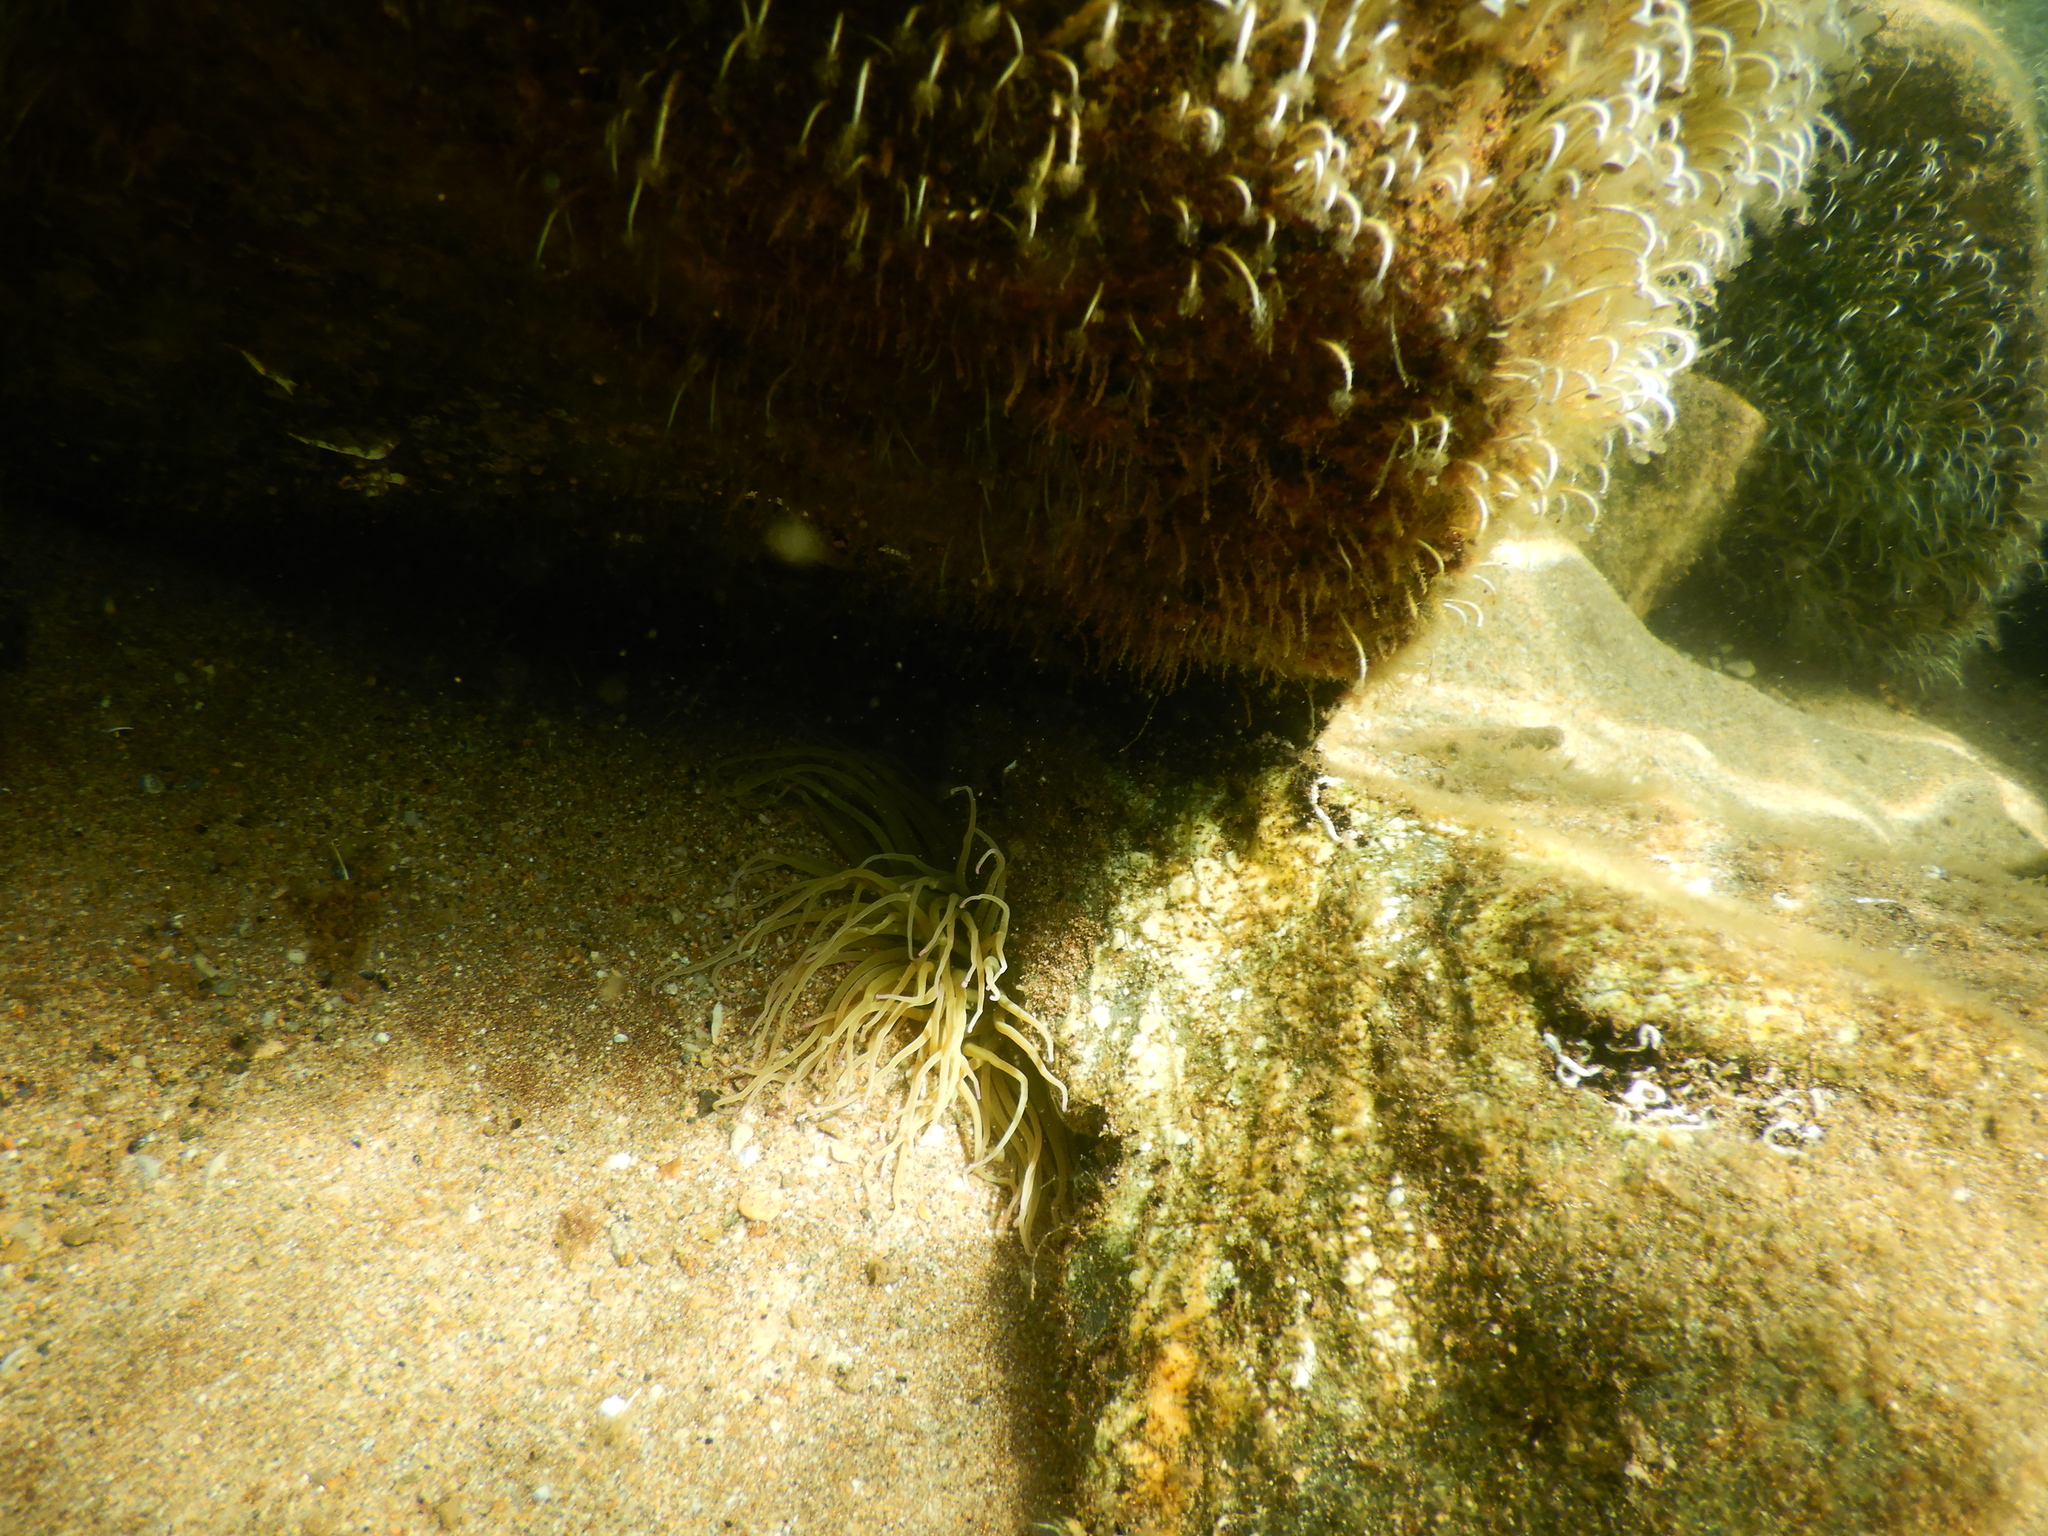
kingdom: Animalia
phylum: Cnidaria
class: Anthozoa
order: Actiniaria
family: Actiniidae
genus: Anemonia
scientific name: Anemonia viridis
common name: Snakelocks anemone
